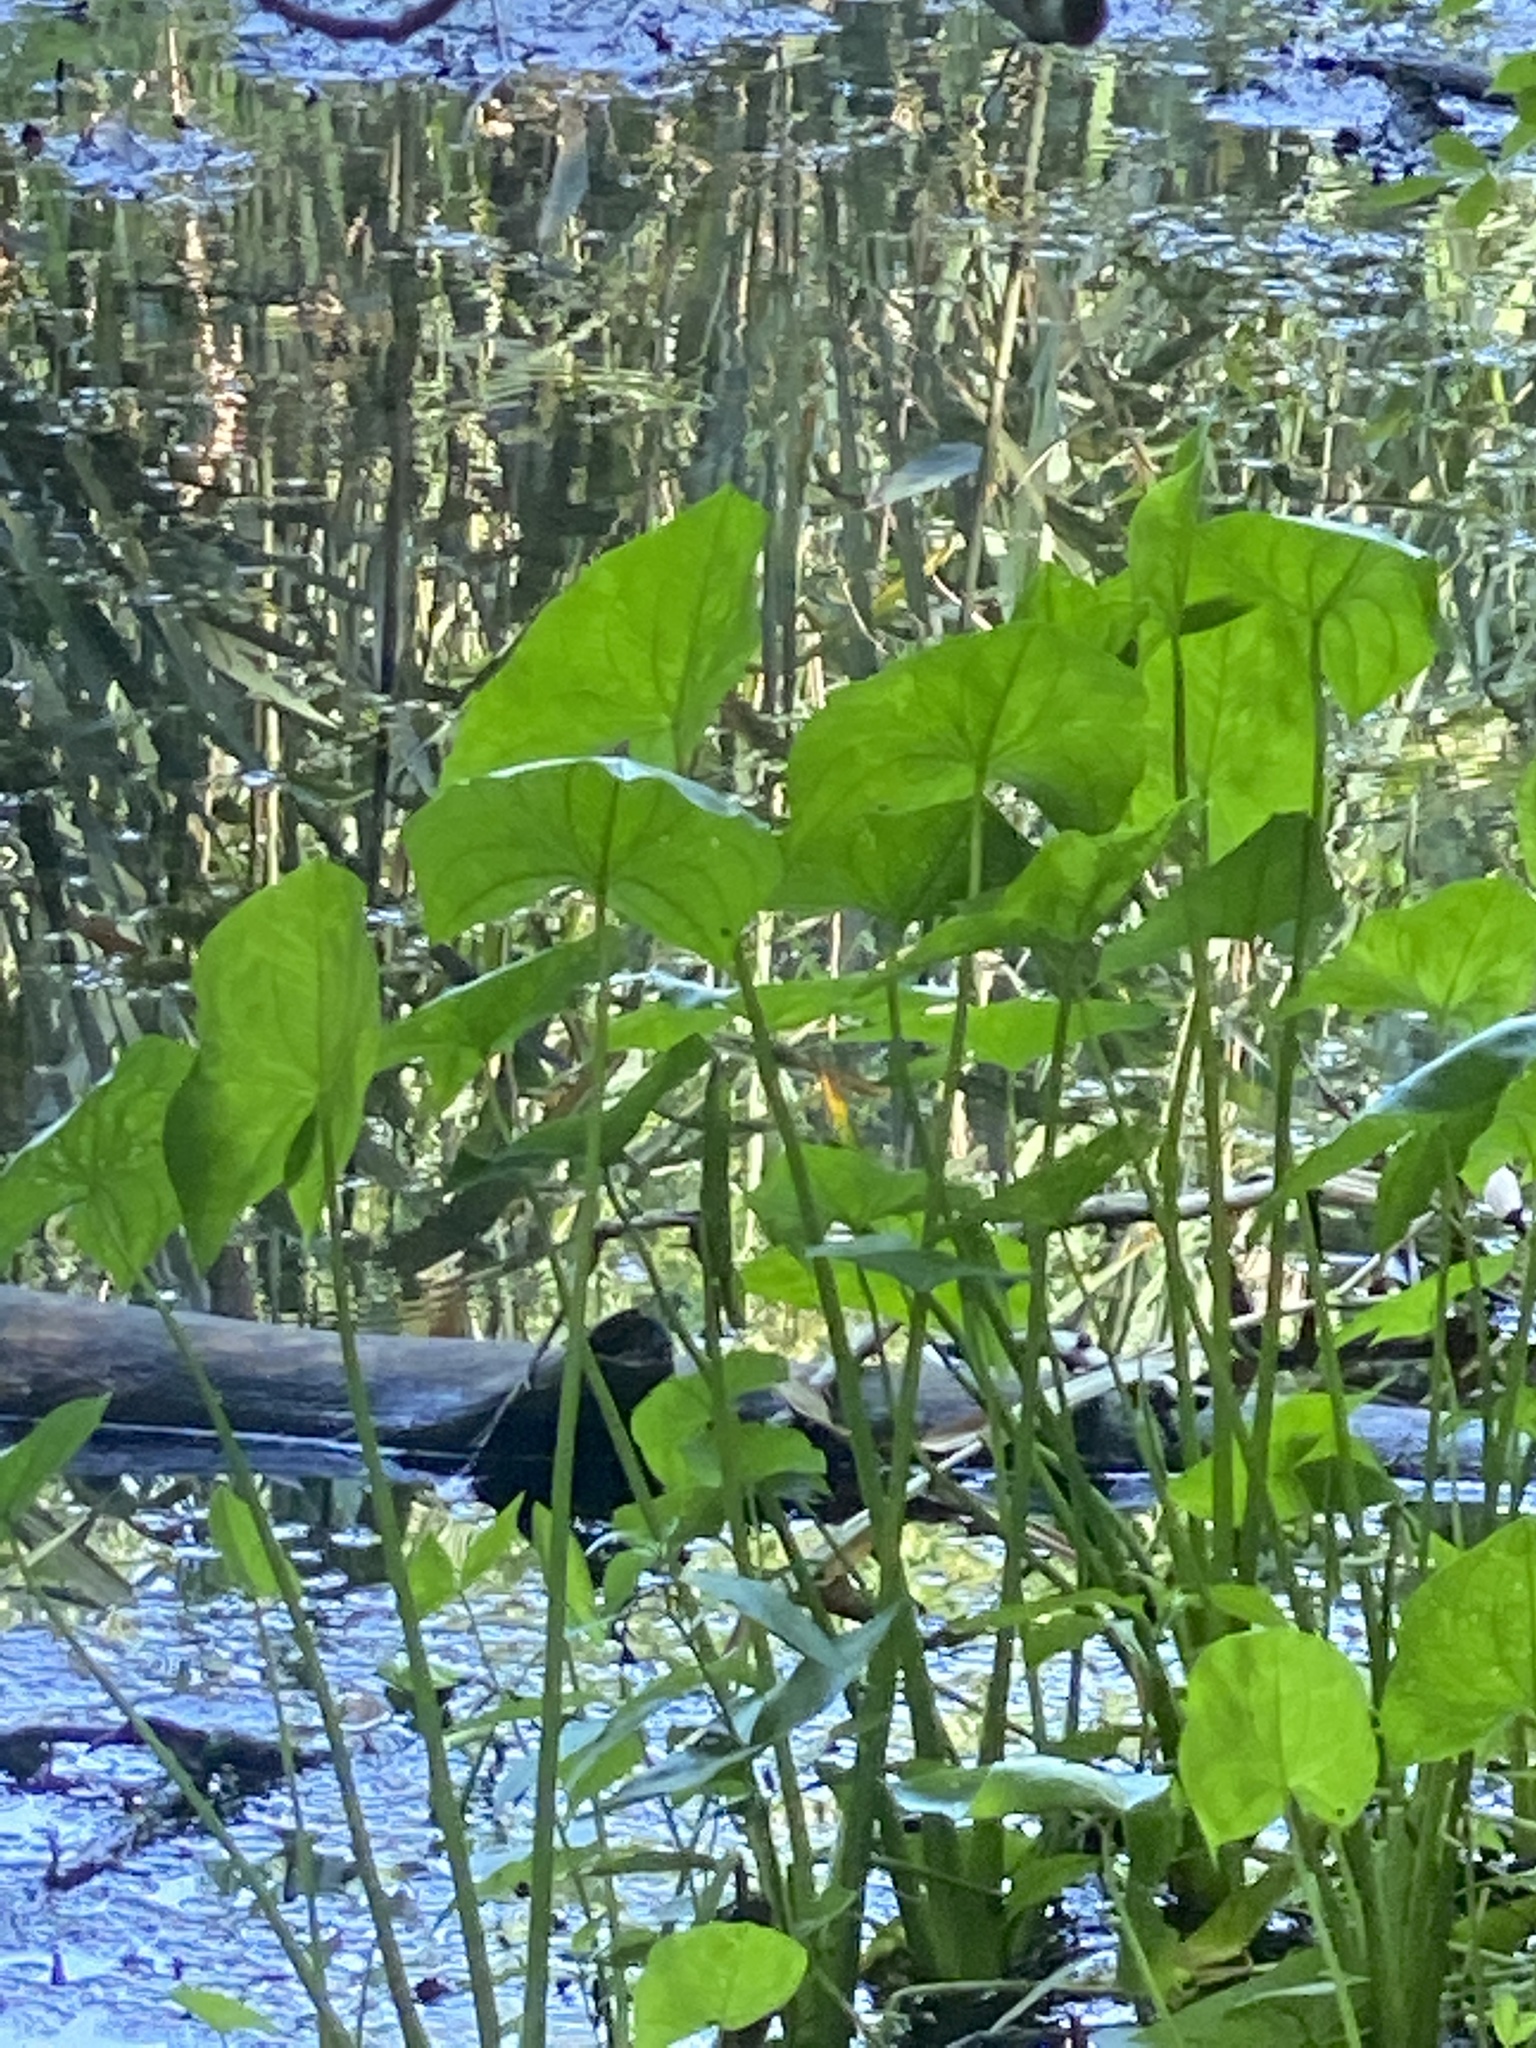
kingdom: Plantae
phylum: Tracheophyta
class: Liliopsida
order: Alismatales
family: Alismataceae
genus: Sagittaria
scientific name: Sagittaria latifolia
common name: Duck-potato
